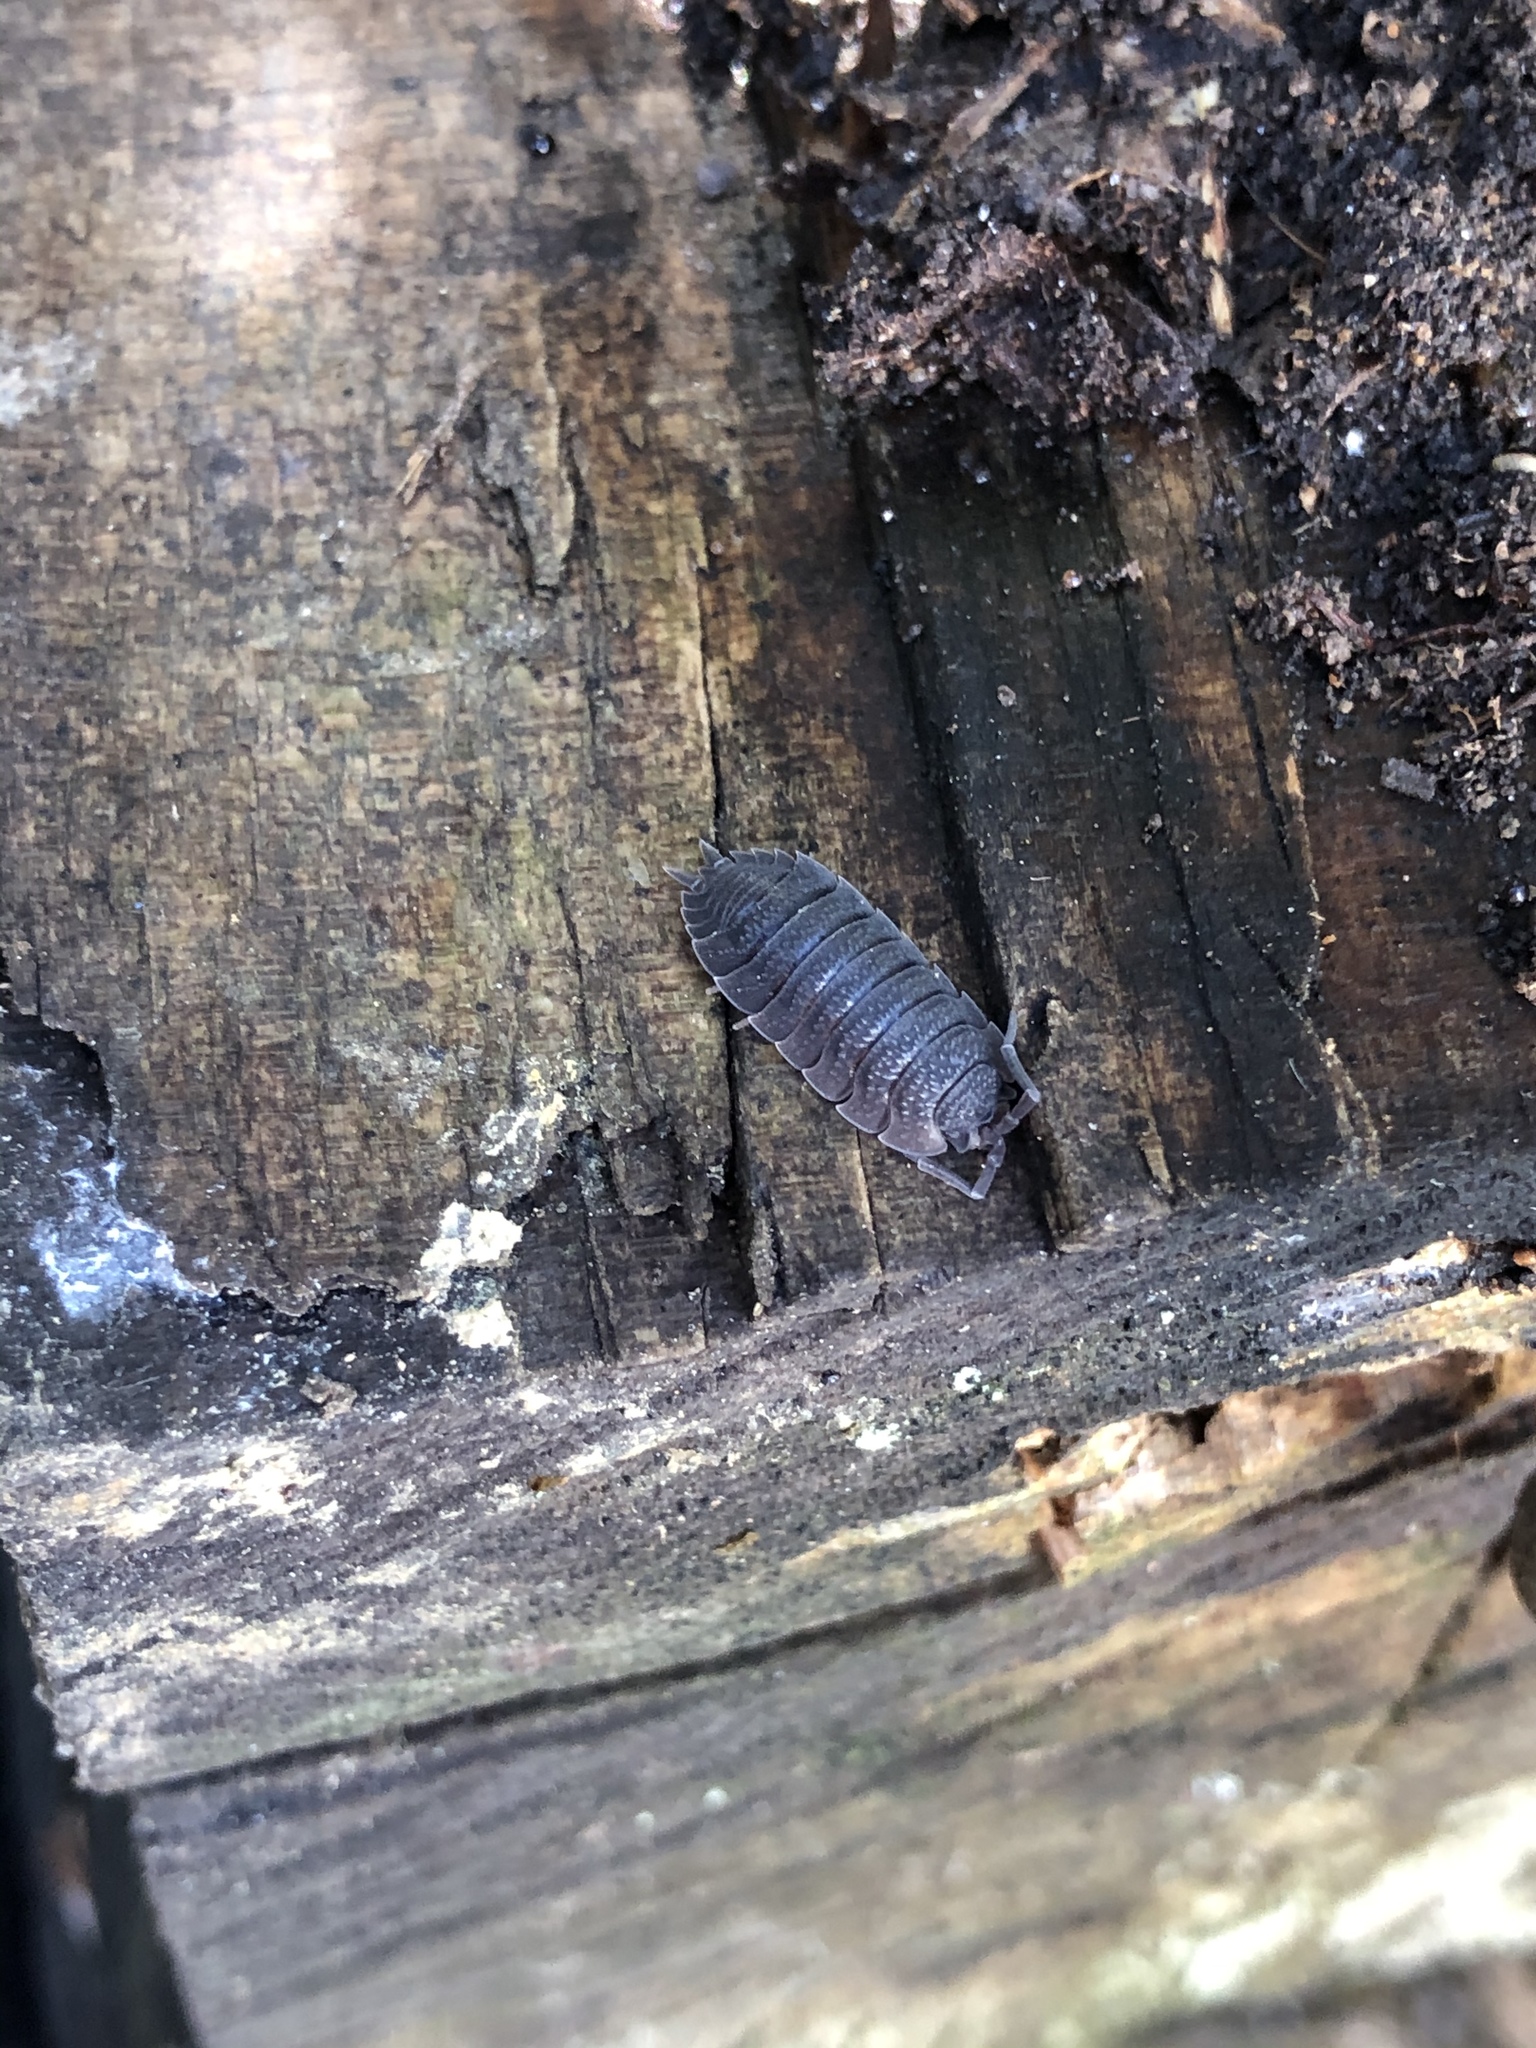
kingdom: Animalia
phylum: Arthropoda
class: Malacostraca
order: Isopoda
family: Porcellionidae
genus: Porcellio
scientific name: Porcellio scaber
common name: Common rough woodlouse
